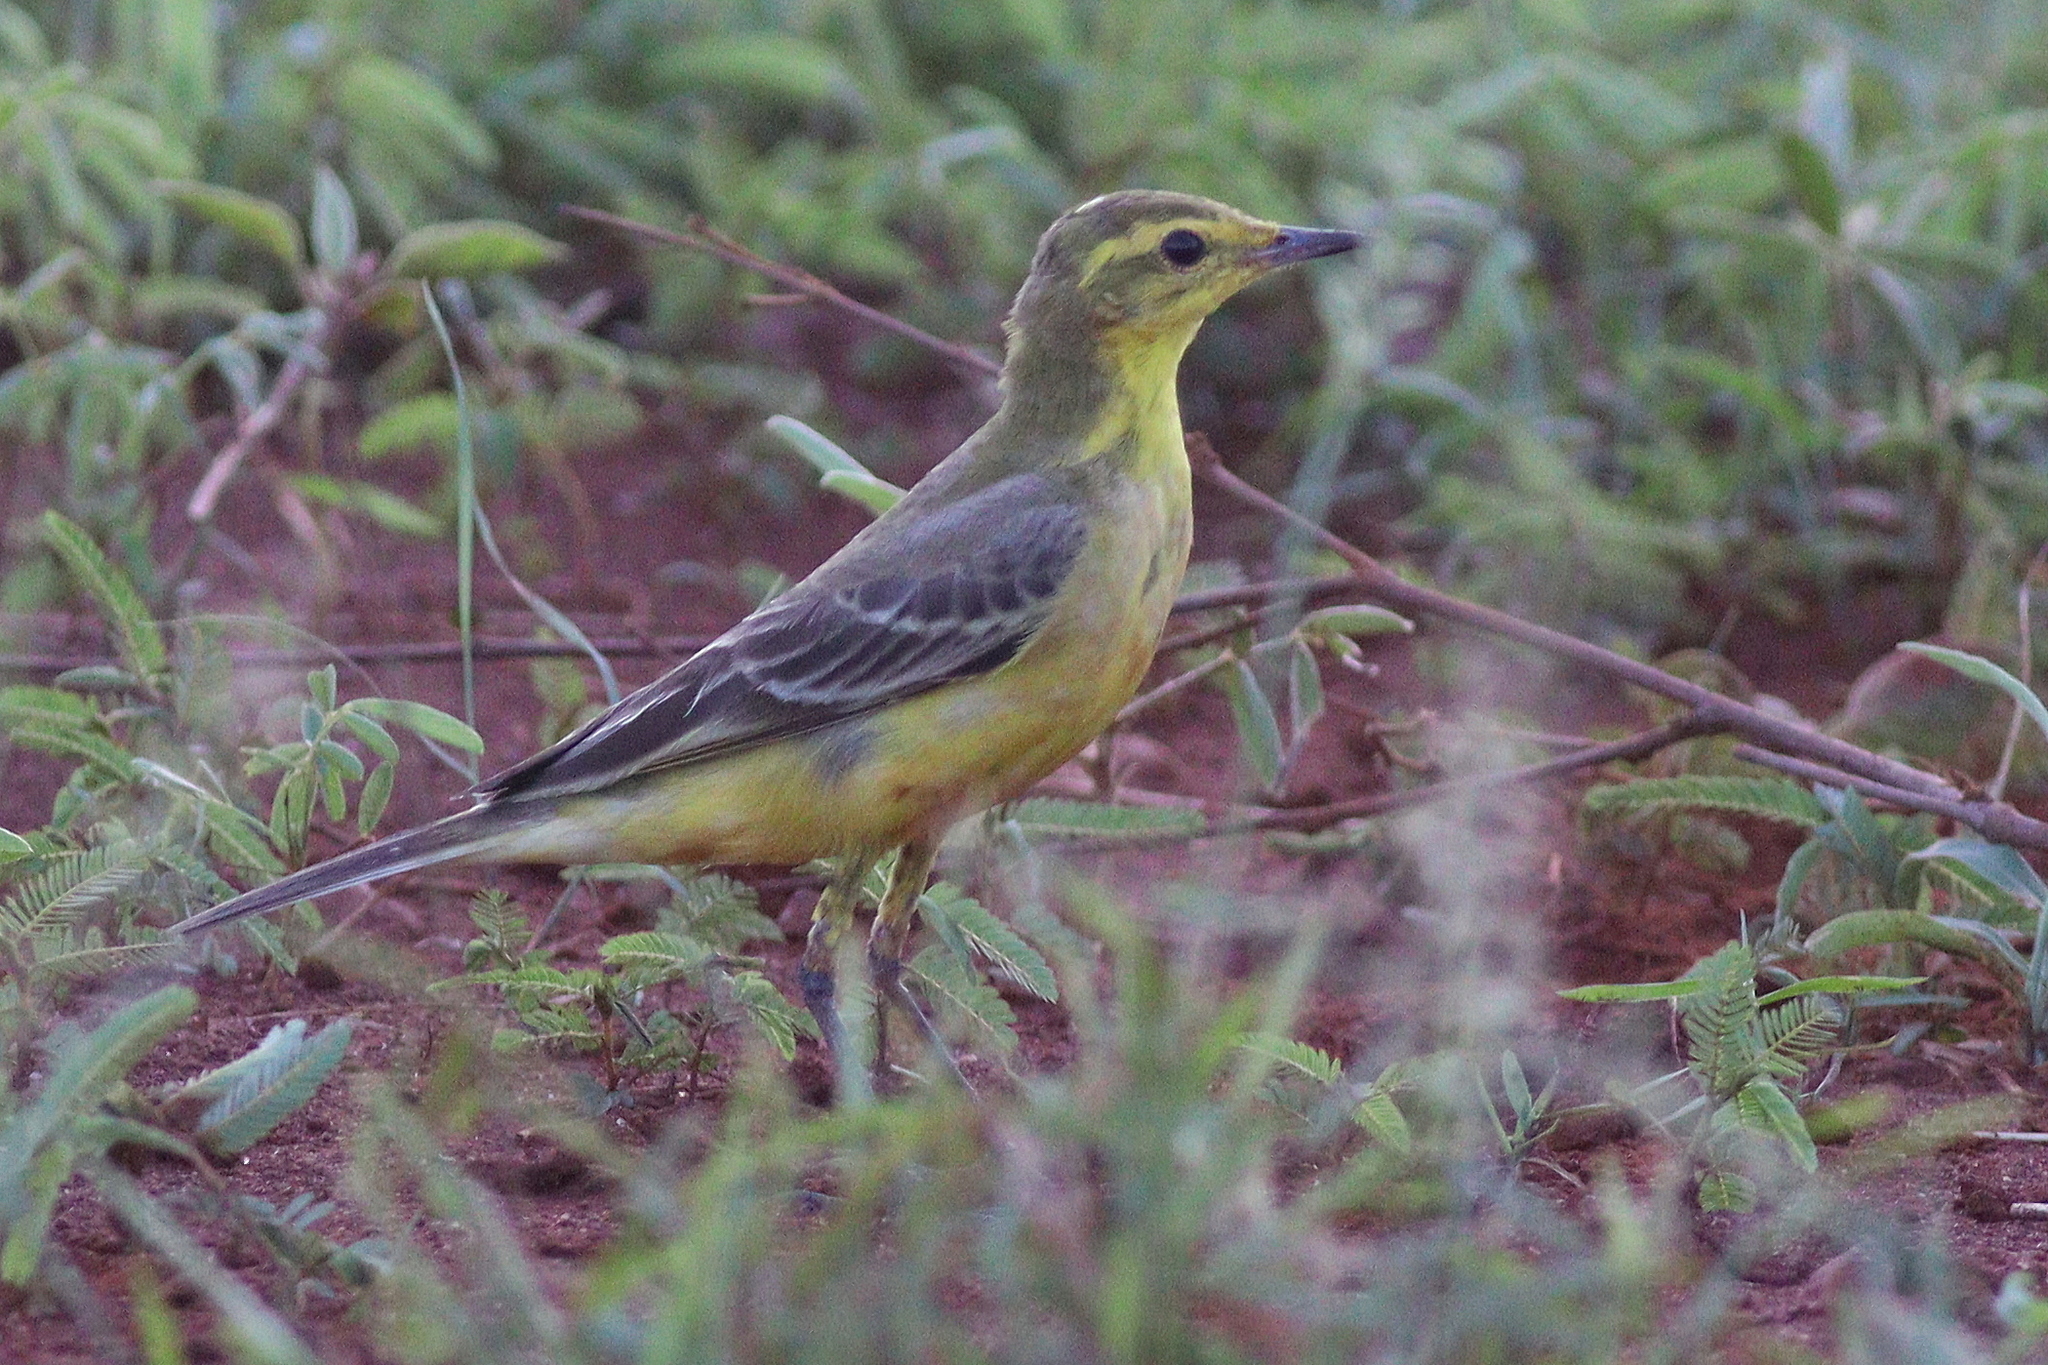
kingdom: Animalia
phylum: Chordata
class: Aves
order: Passeriformes
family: Motacillidae
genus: Motacilla
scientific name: Motacilla flava
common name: Western yellow wagtail
